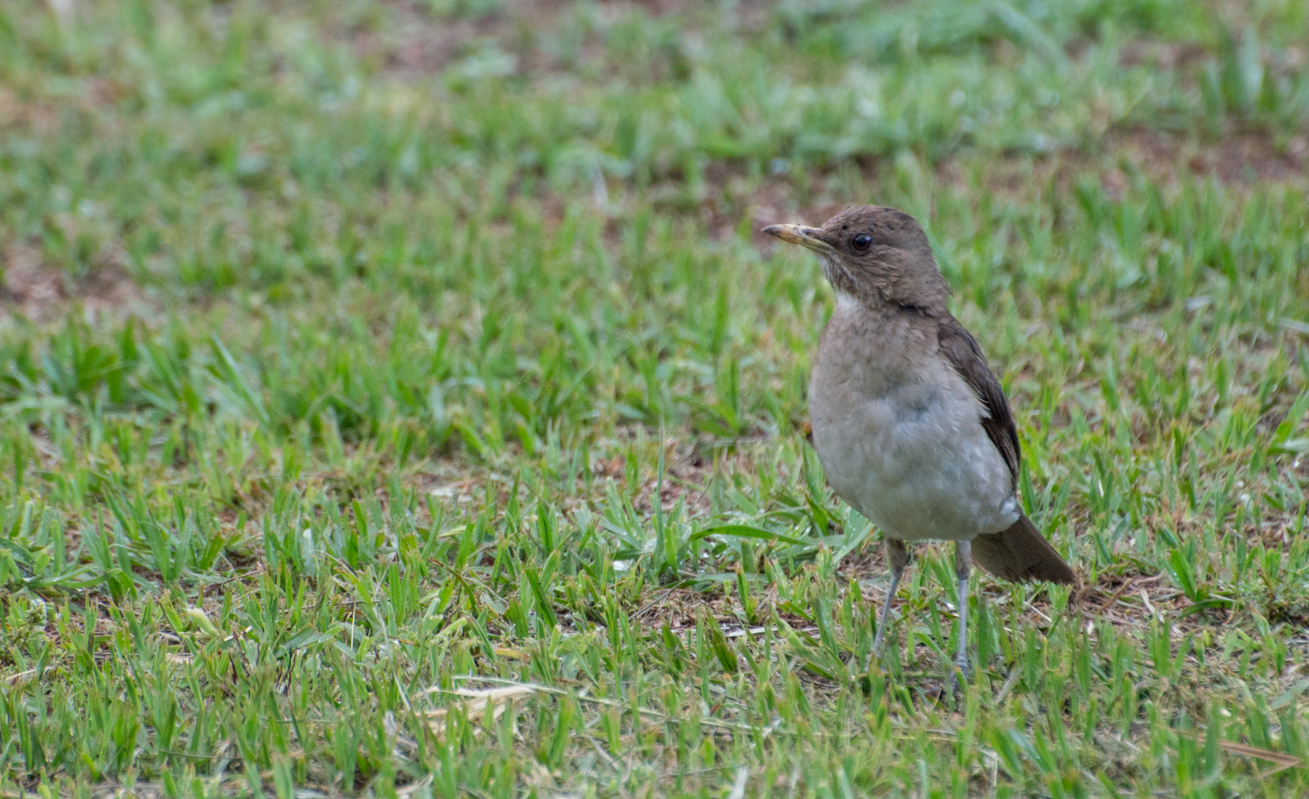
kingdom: Animalia
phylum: Chordata
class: Aves
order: Passeriformes
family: Turdidae
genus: Turdus
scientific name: Turdus amaurochalinus
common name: Creamy-bellied thrush
